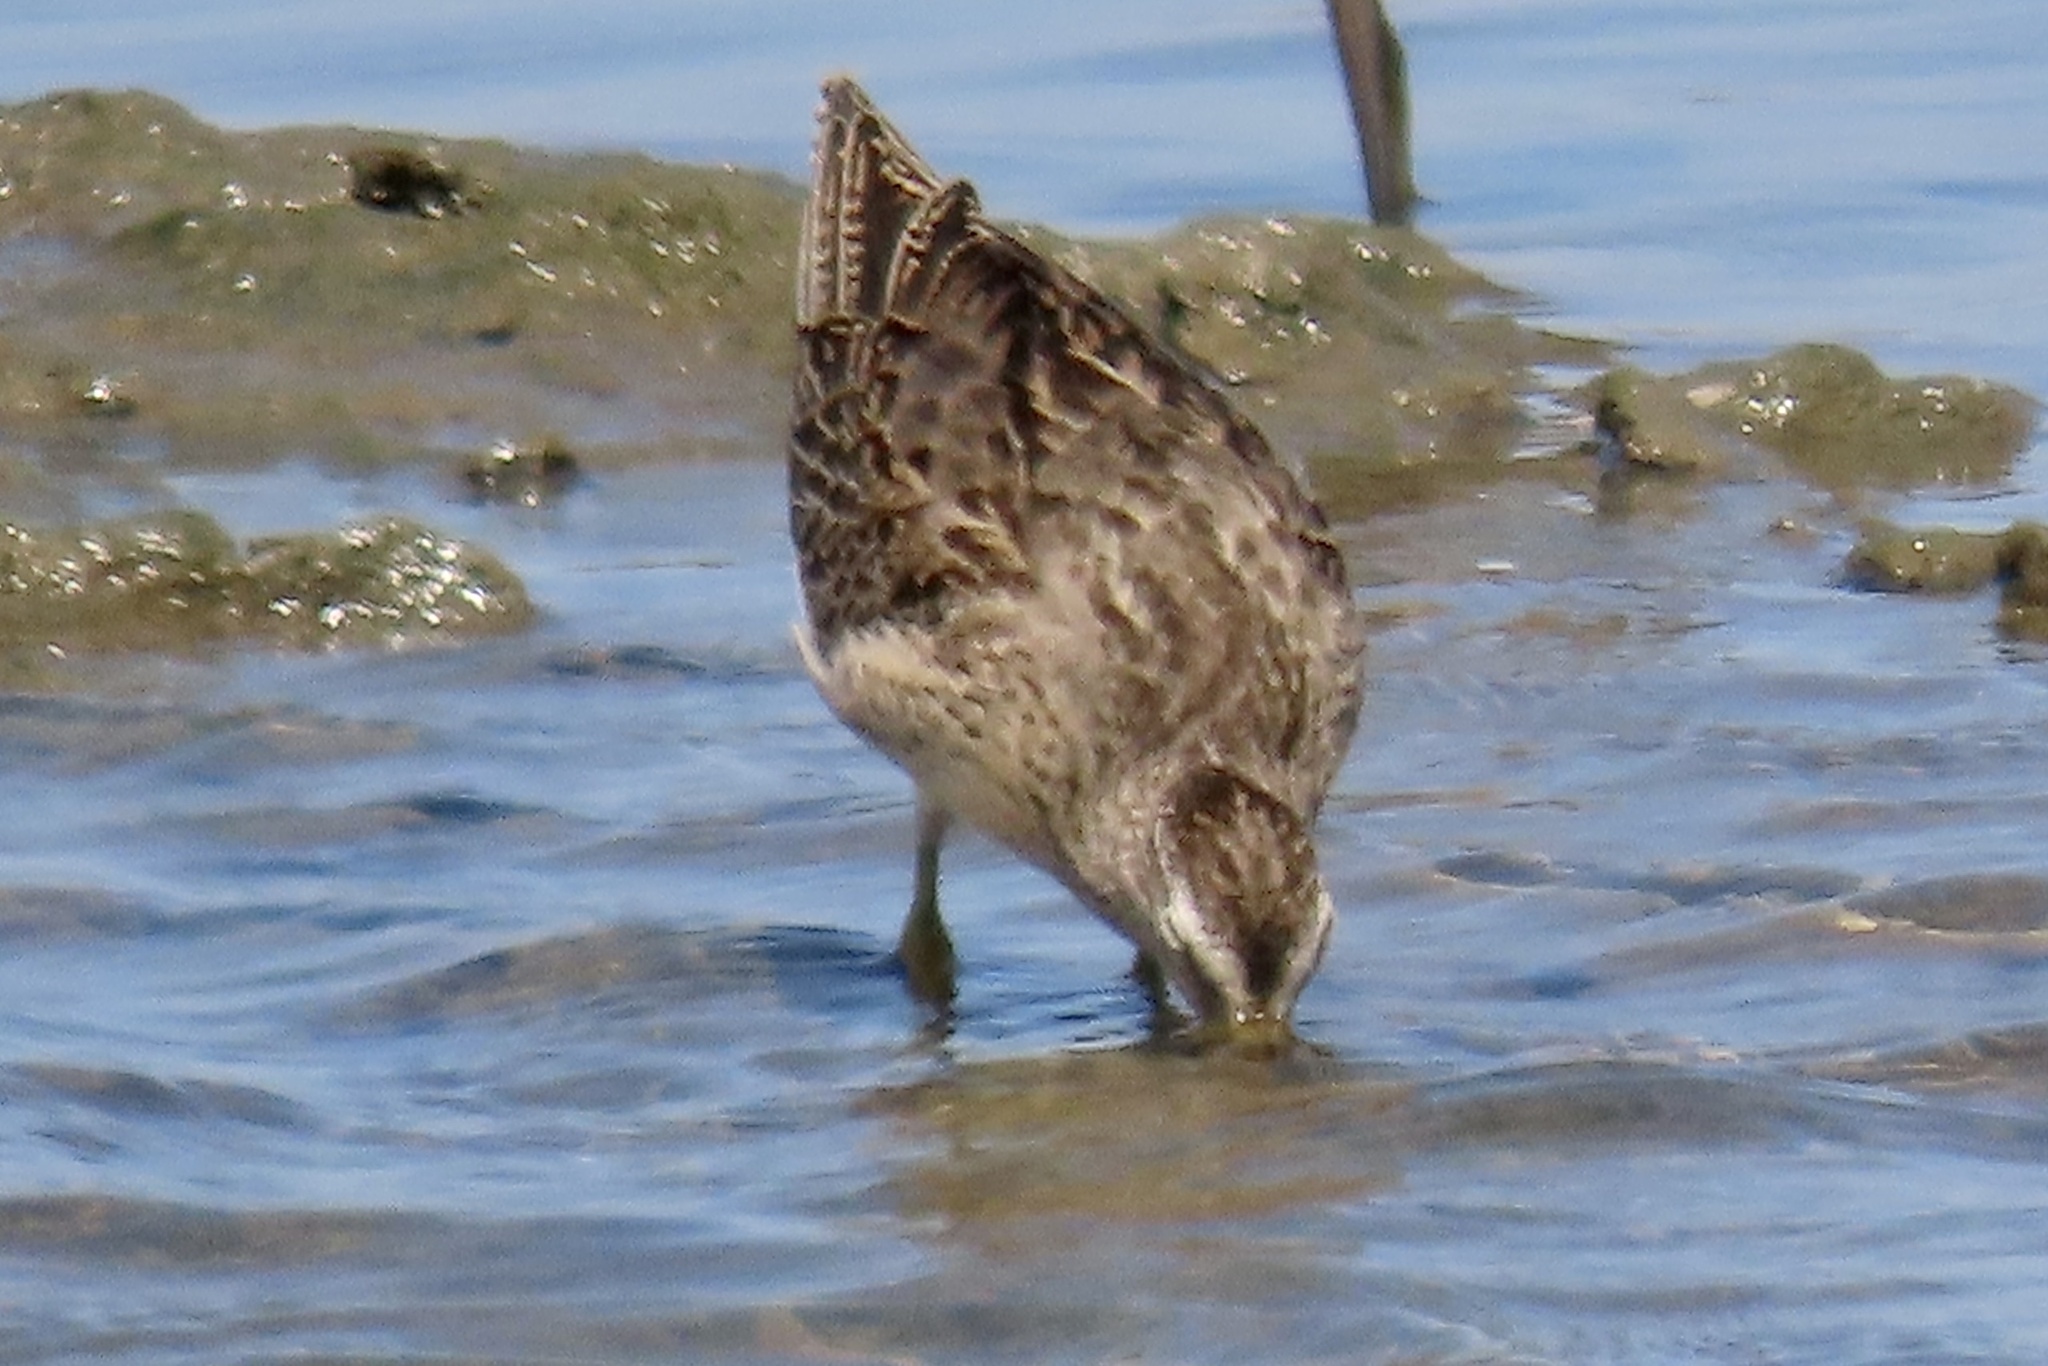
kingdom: Animalia
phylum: Chordata
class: Aves
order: Charadriiformes
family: Scolopacidae
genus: Limnodromus
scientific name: Limnodromus griseus
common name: Short-billed dowitcher
